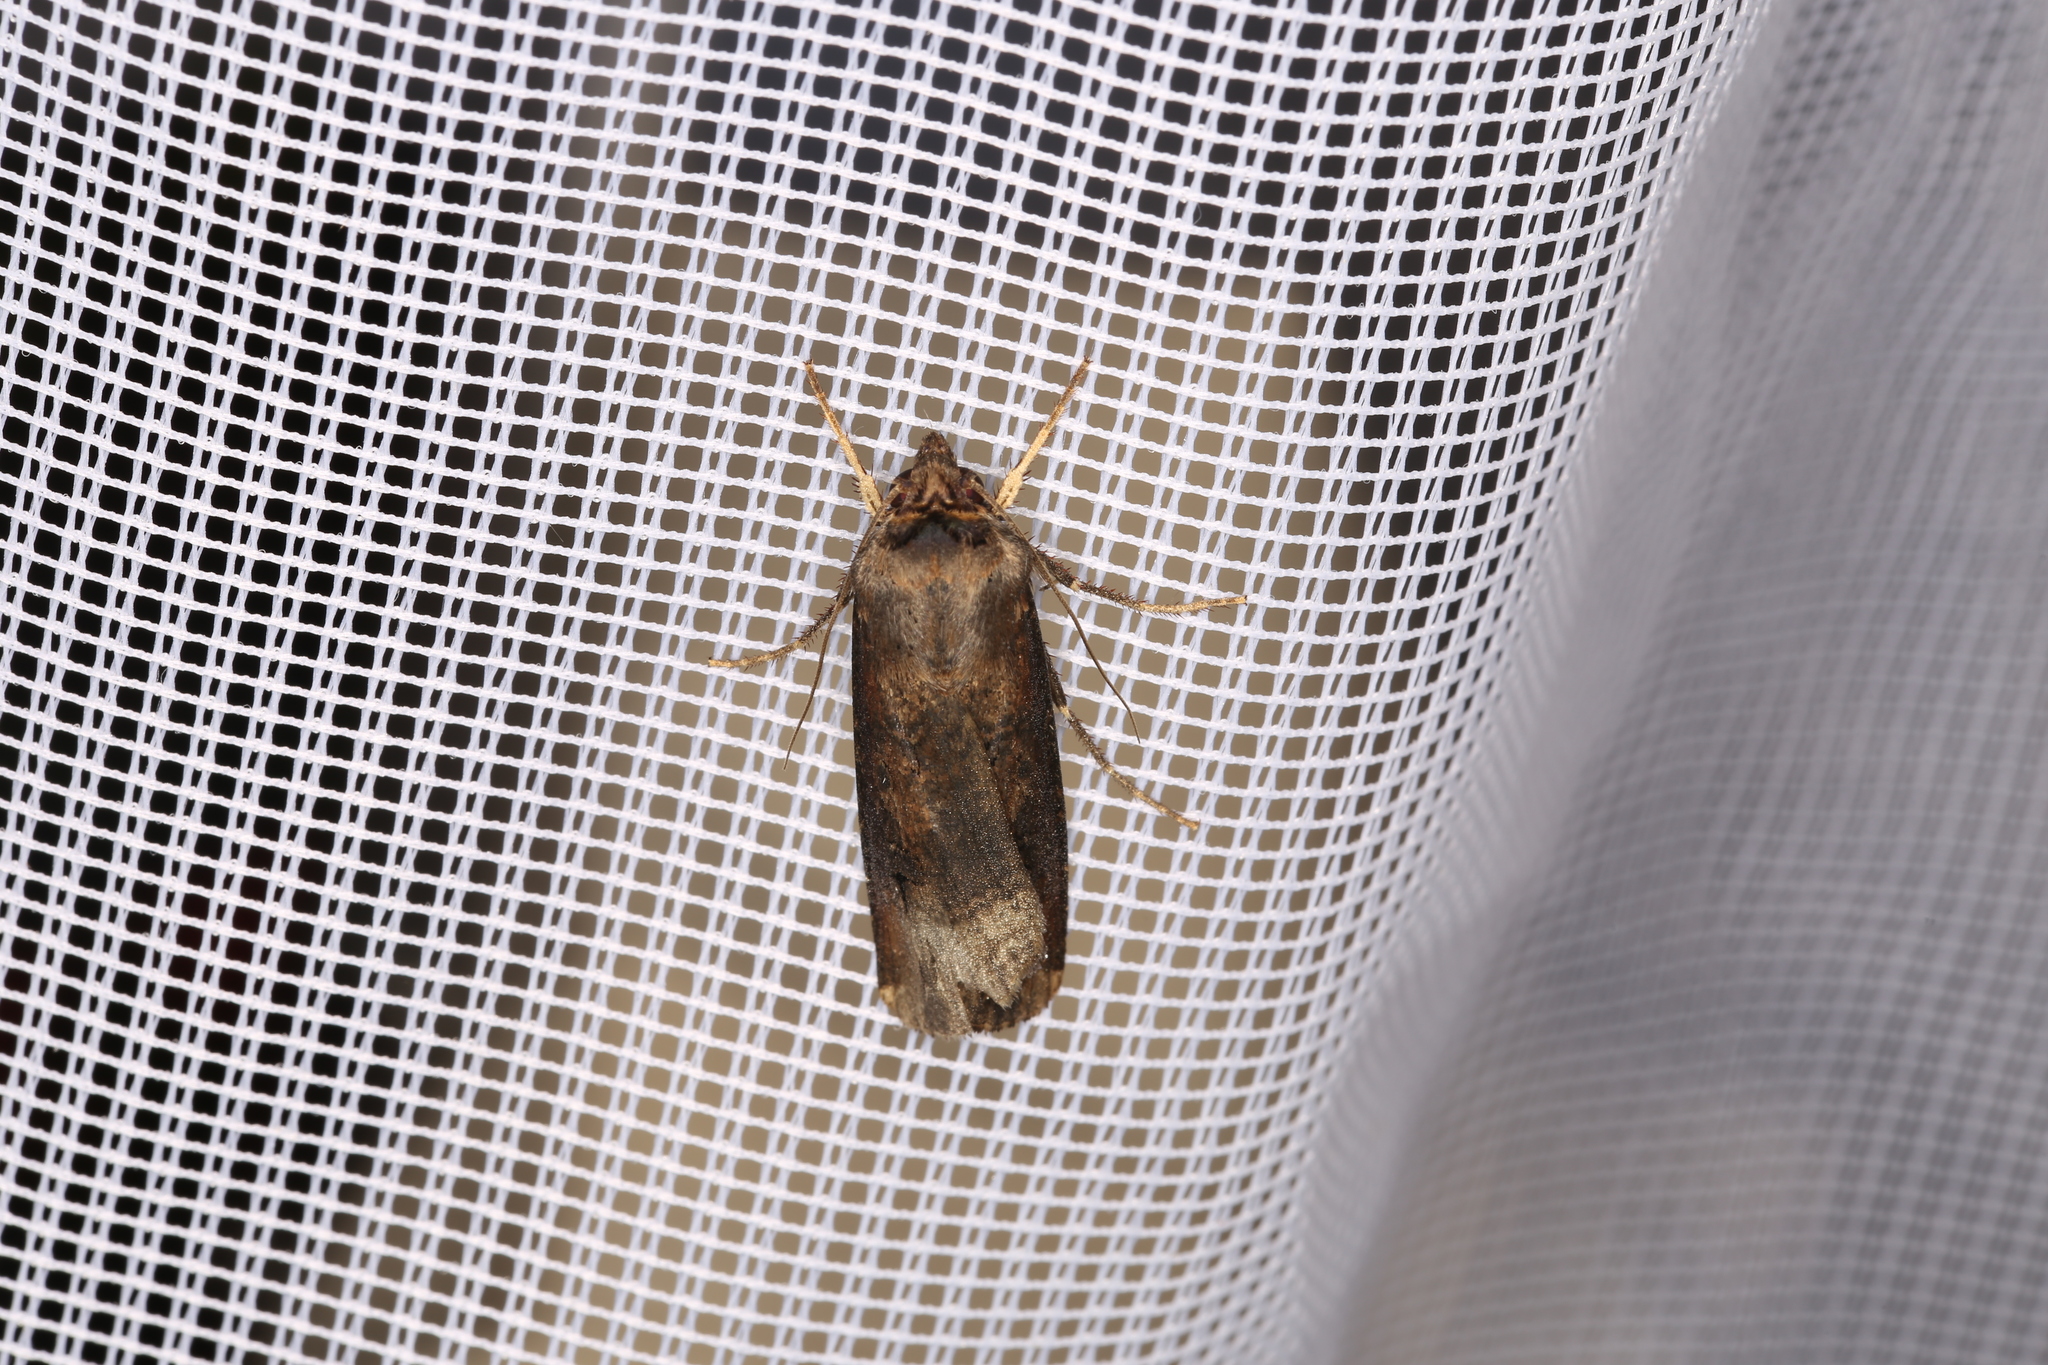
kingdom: Animalia
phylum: Arthropoda
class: Insecta
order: Lepidoptera
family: Noctuidae
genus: Agrotis
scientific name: Agrotis ipsilon
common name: Dark sword-grass
